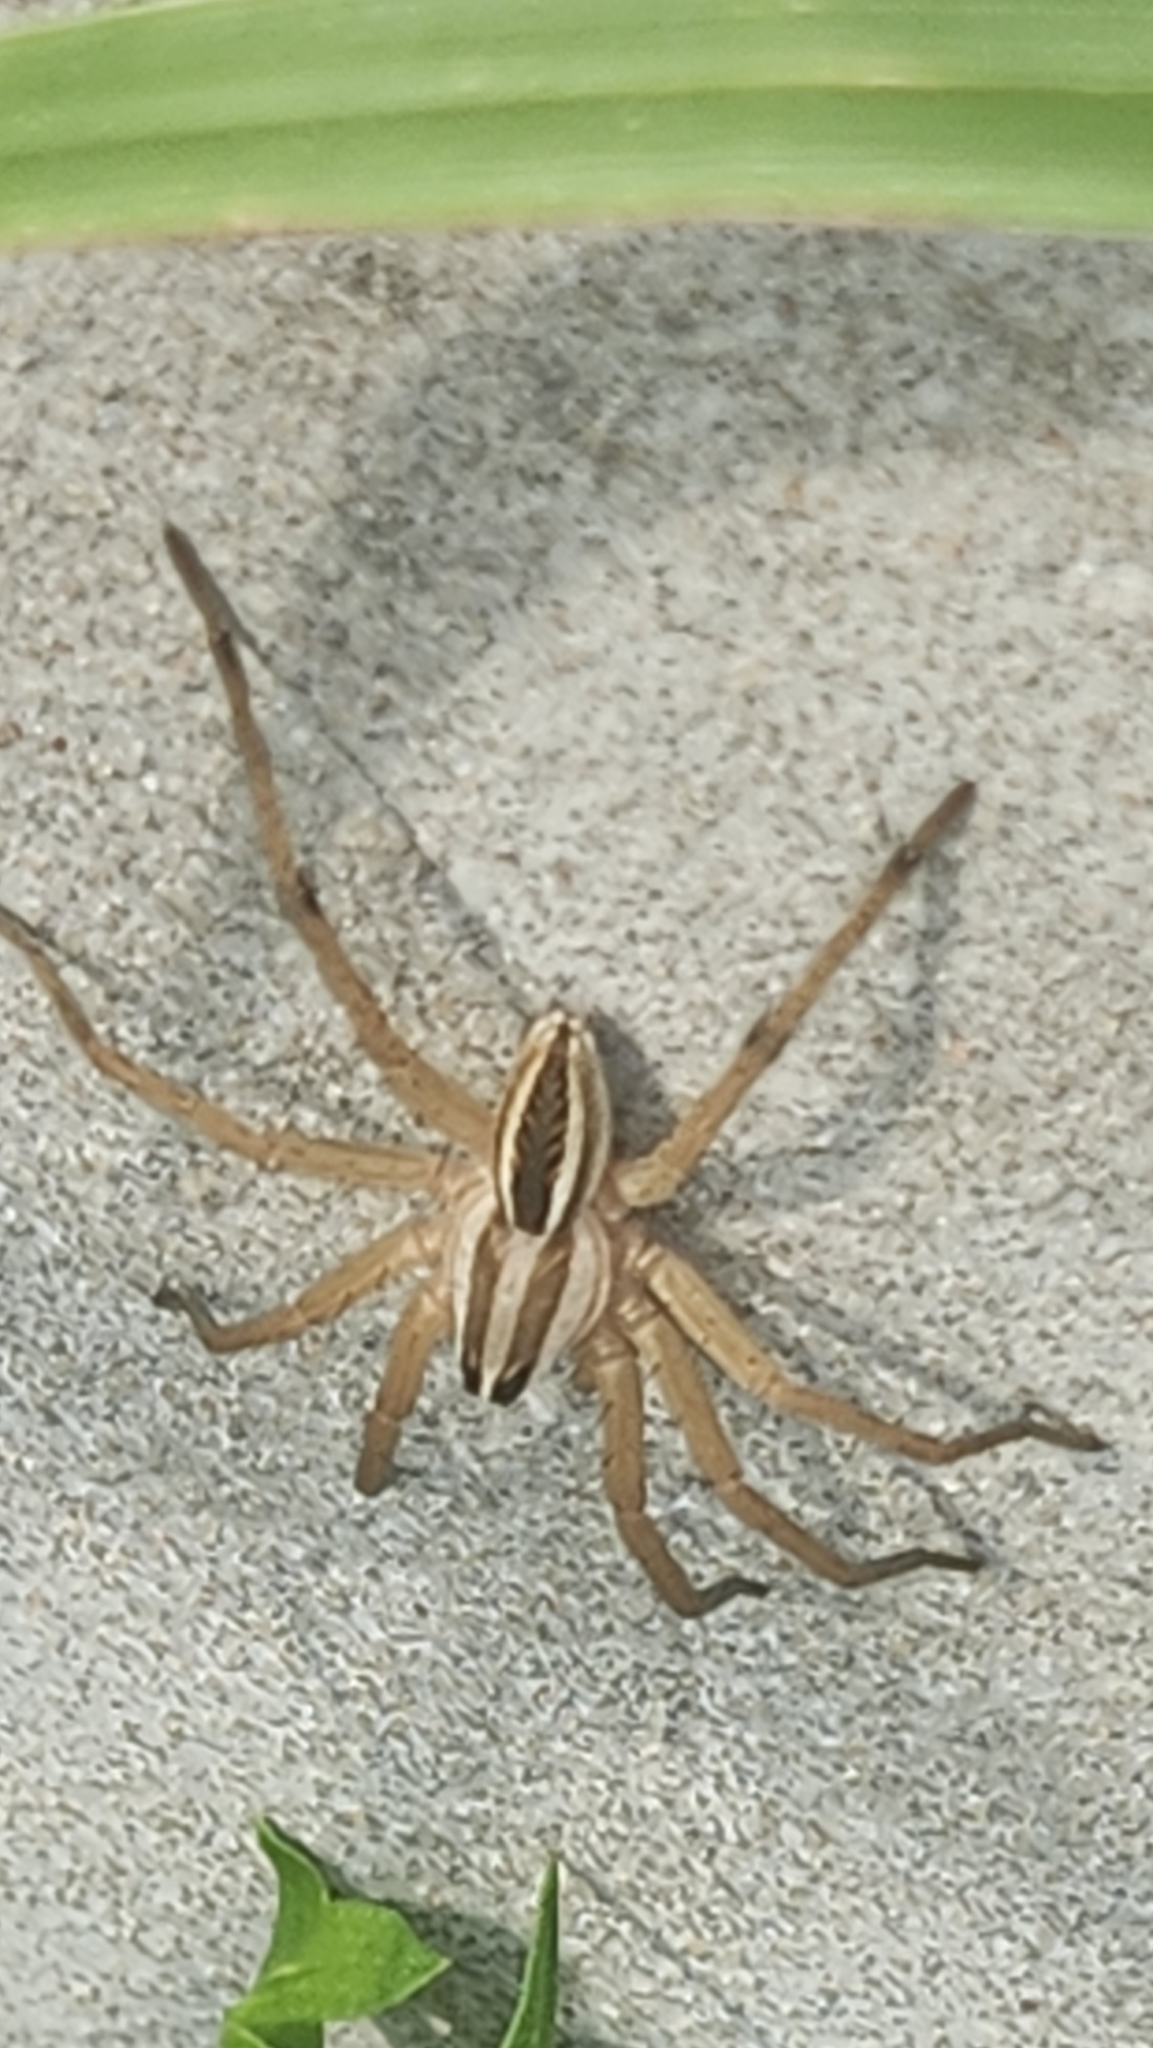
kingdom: Animalia
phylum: Arthropoda
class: Arachnida
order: Araneae
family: Lycosidae
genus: Rabidosa
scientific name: Rabidosa rabida
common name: Rabid wolf spider
